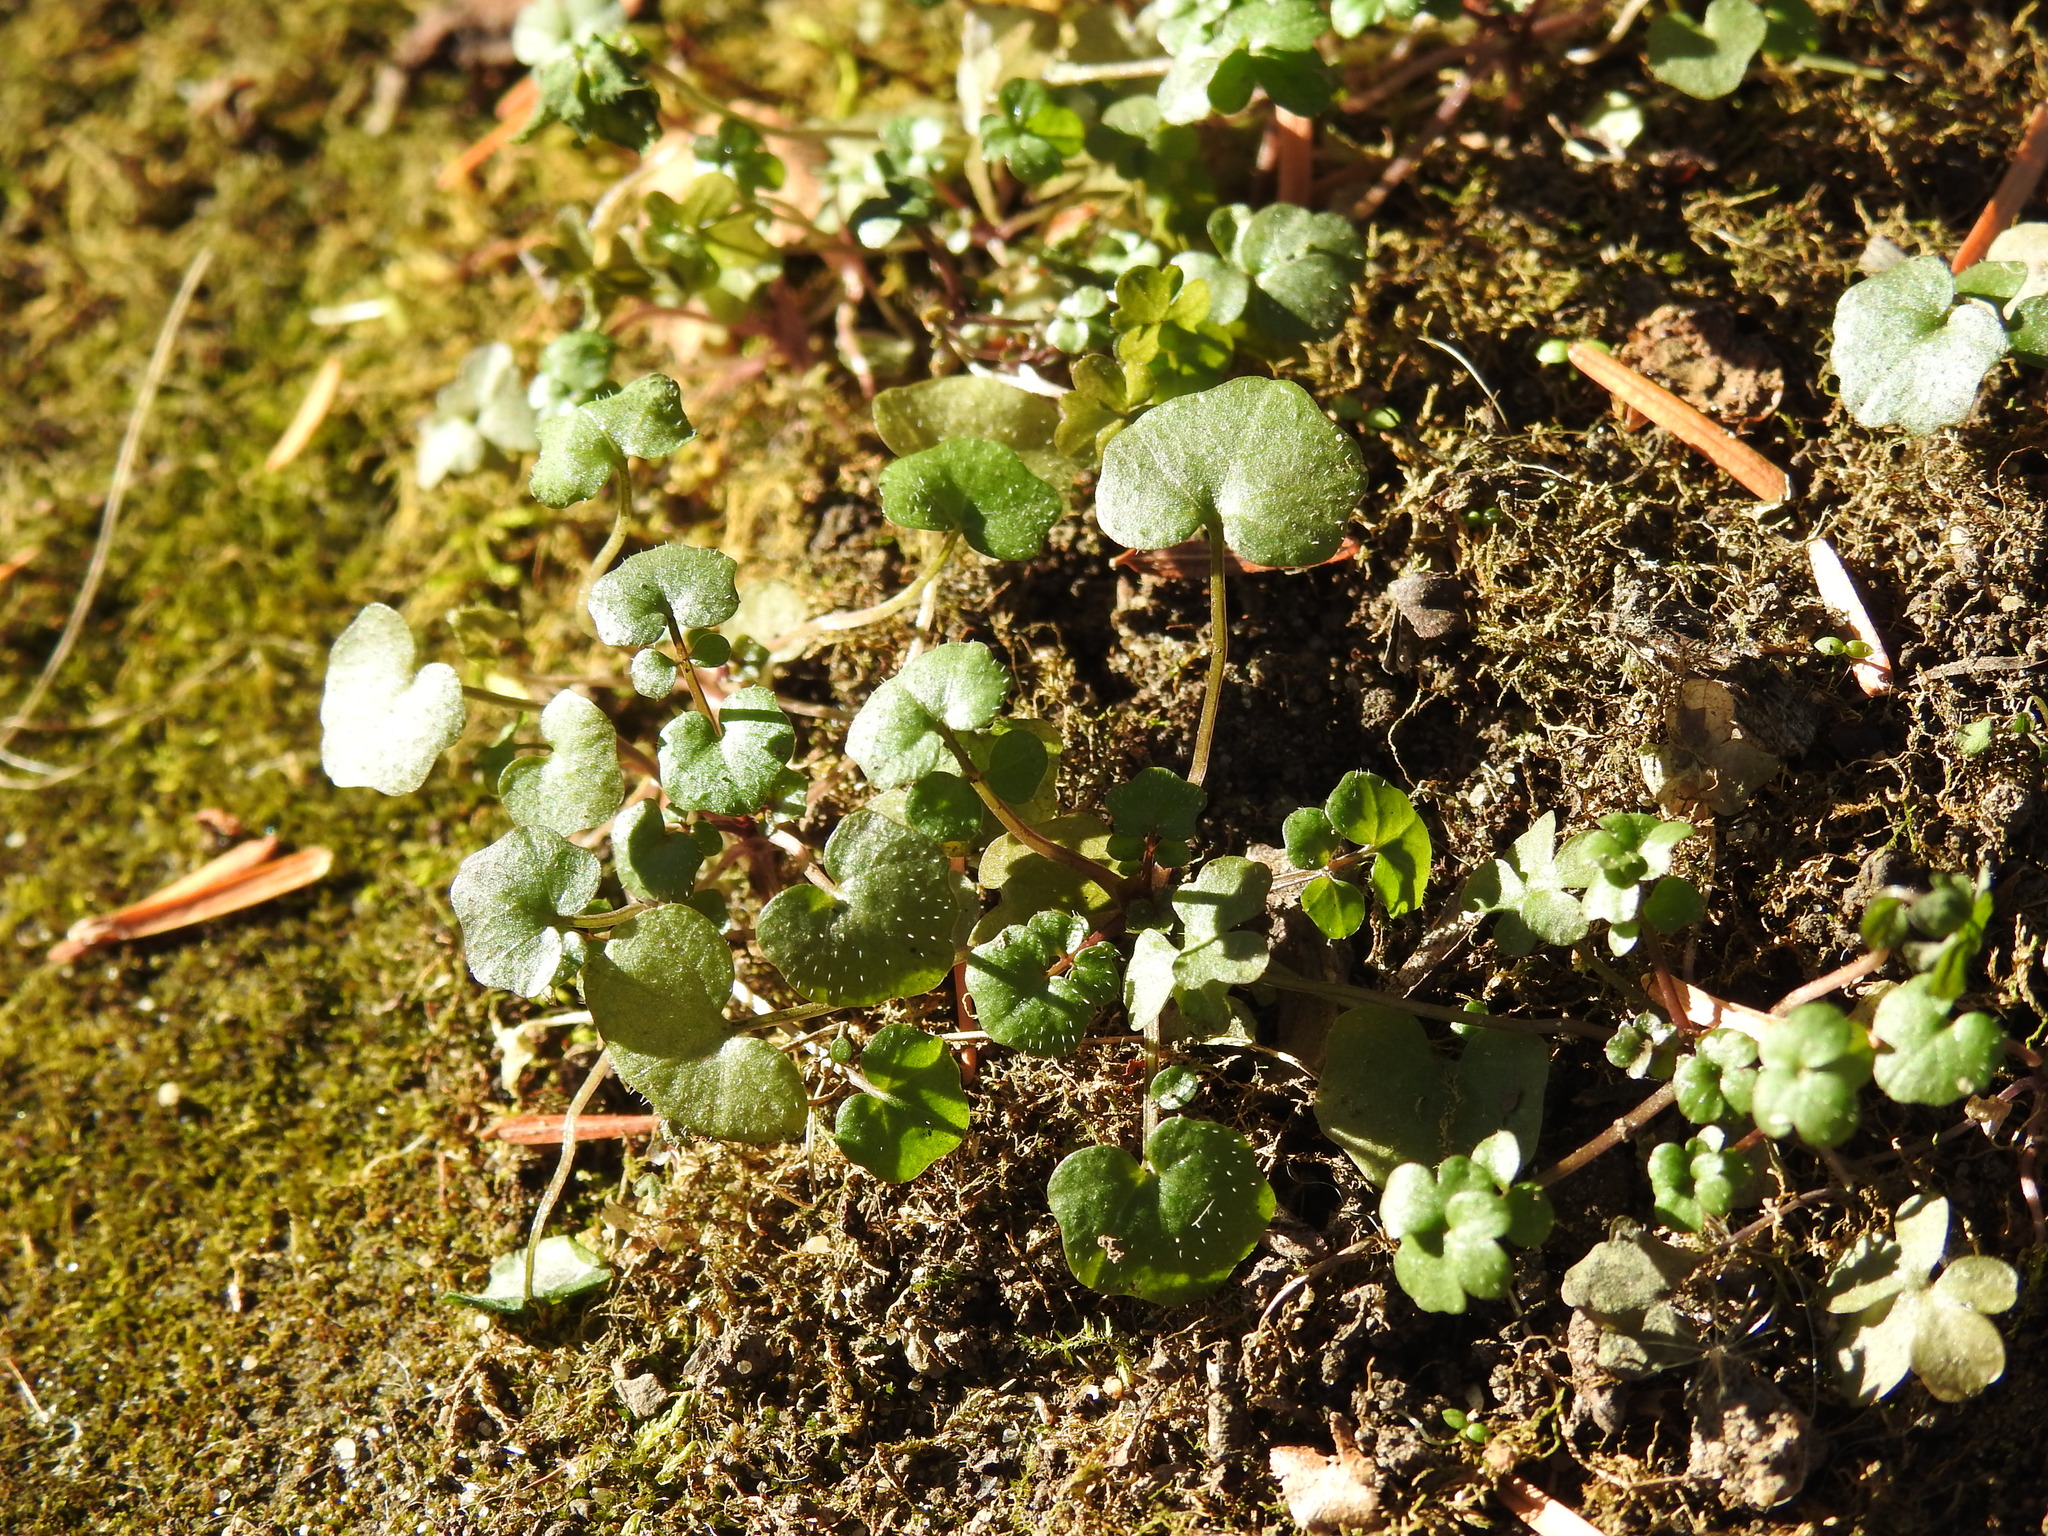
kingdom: Plantae
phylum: Tracheophyta
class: Magnoliopsida
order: Brassicales
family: Brassicaceae
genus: Cardamine
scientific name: Cardamine hirsuta
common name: Hairy bittercress
